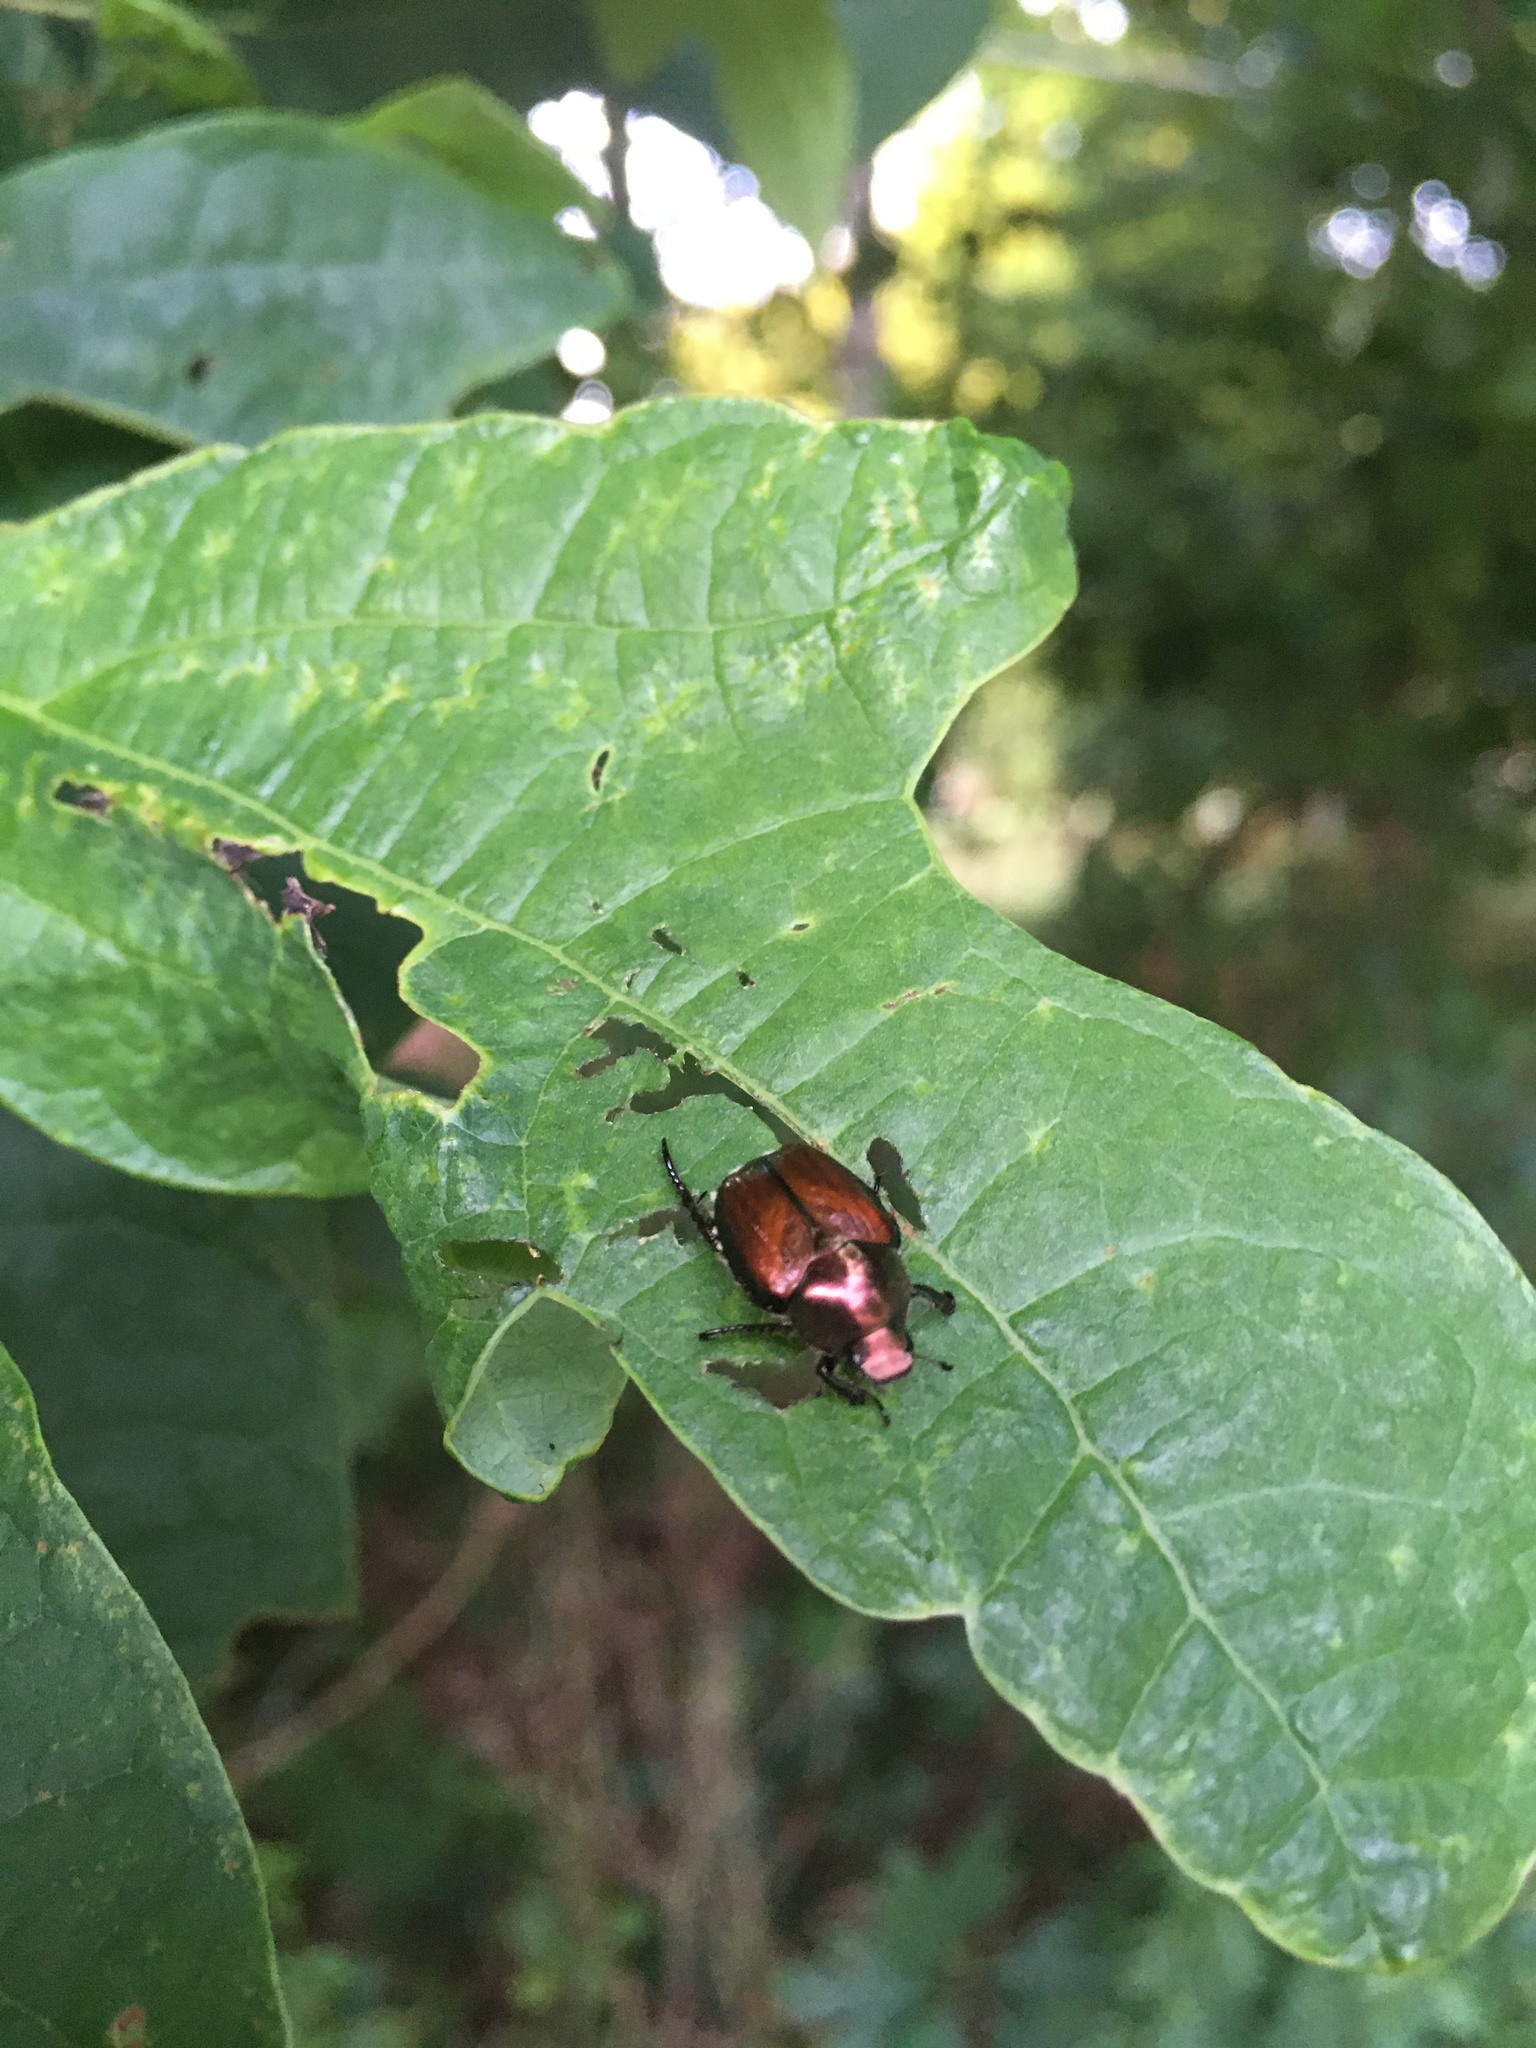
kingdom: Animalia
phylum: Arthropoda
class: Insecta
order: Coleoptera
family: Scarabaeidae
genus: Popillia
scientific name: Popillia japonica
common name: Japanese beetle
